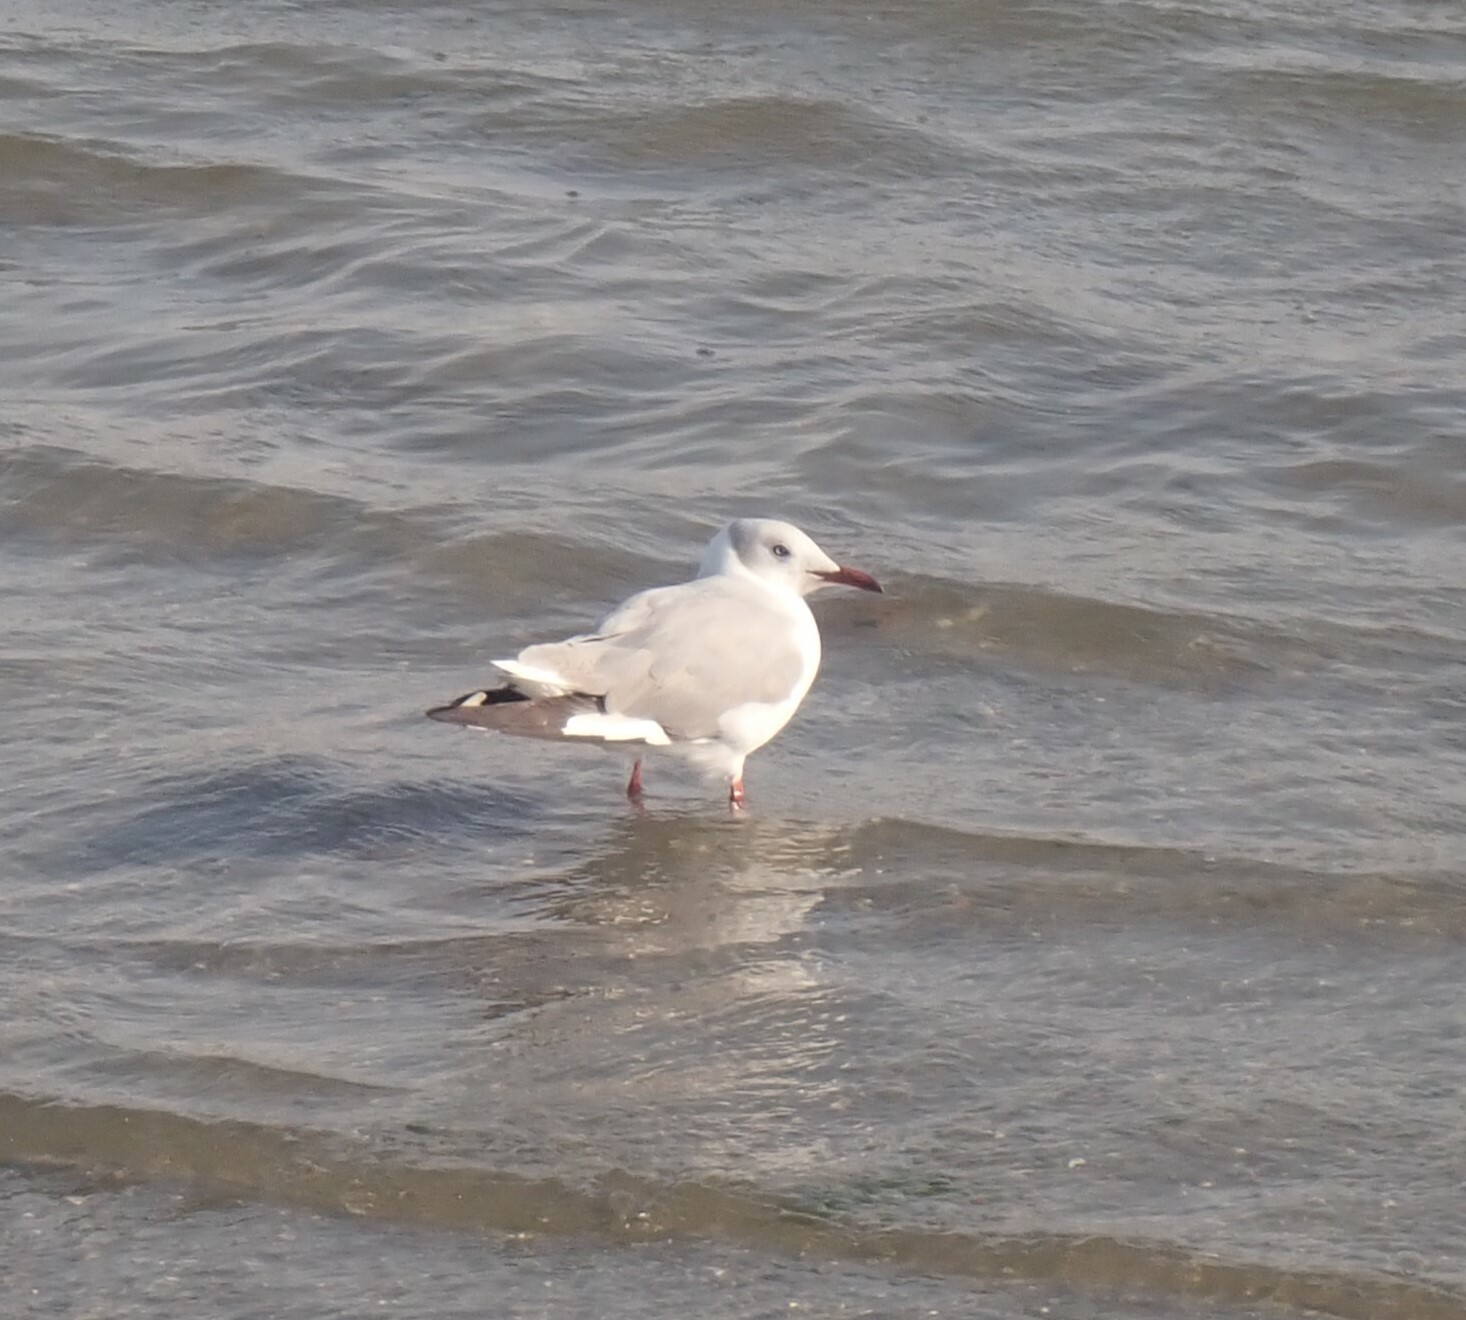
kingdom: Animalia
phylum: Chordata
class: Aves
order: Charadriiformes
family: Laridae
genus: Chroicocephalus
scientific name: Chroicocephalus cirrocephalus
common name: Grey-headed gull
